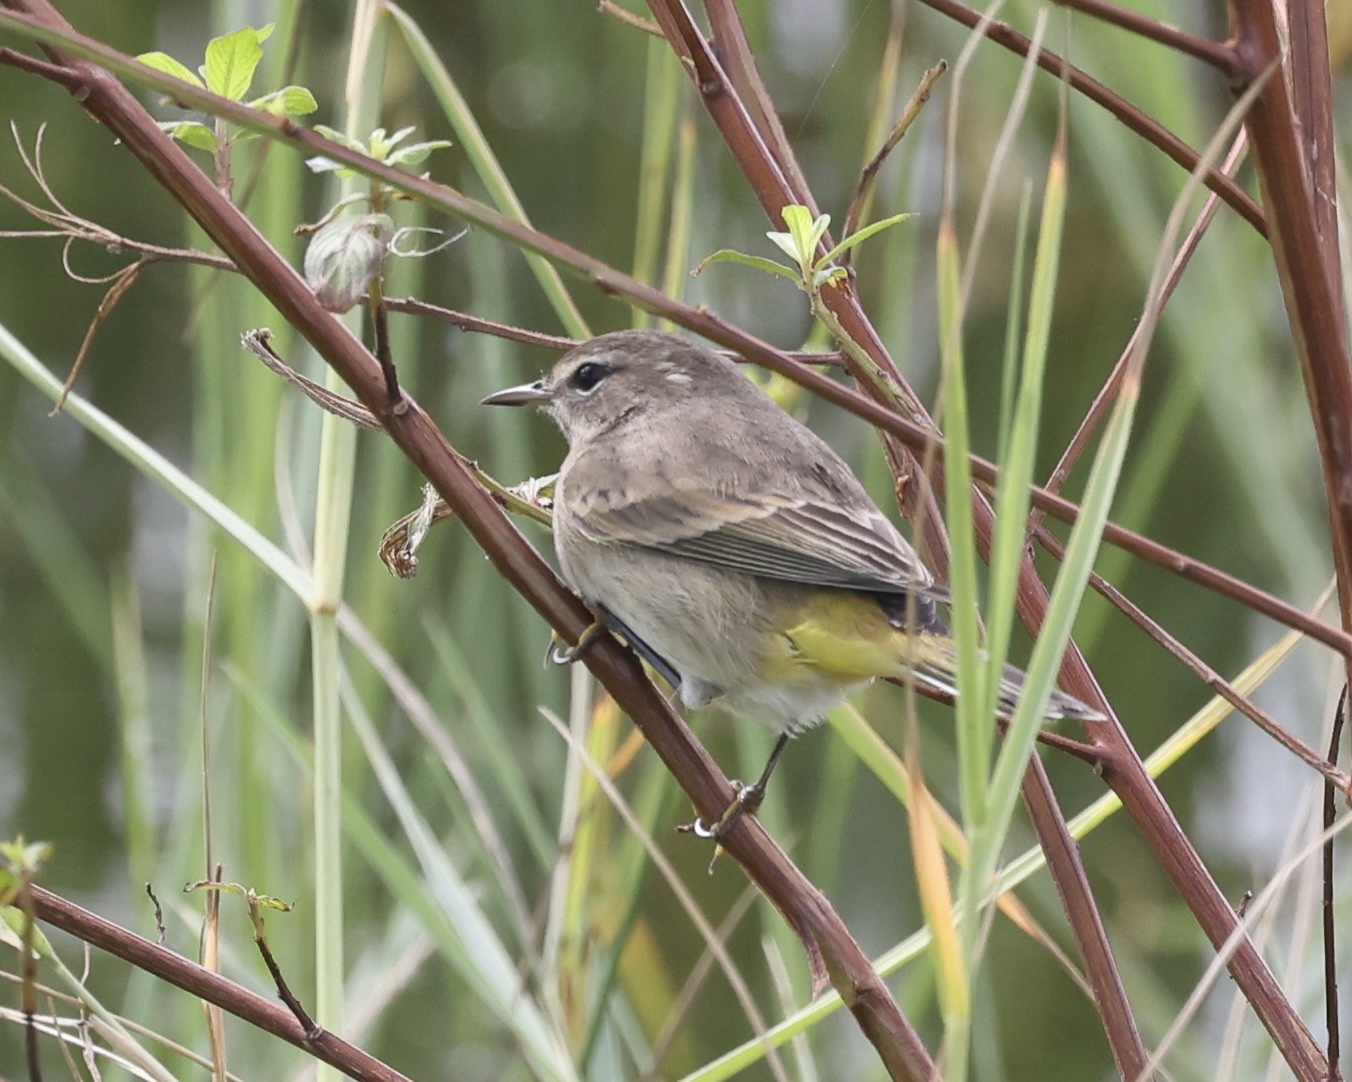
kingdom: Animalia
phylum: Chordata
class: Aves
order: Passeriformes
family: Parulidae
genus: Setophaga
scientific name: Setophaga palmarum
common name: Palm warbler
